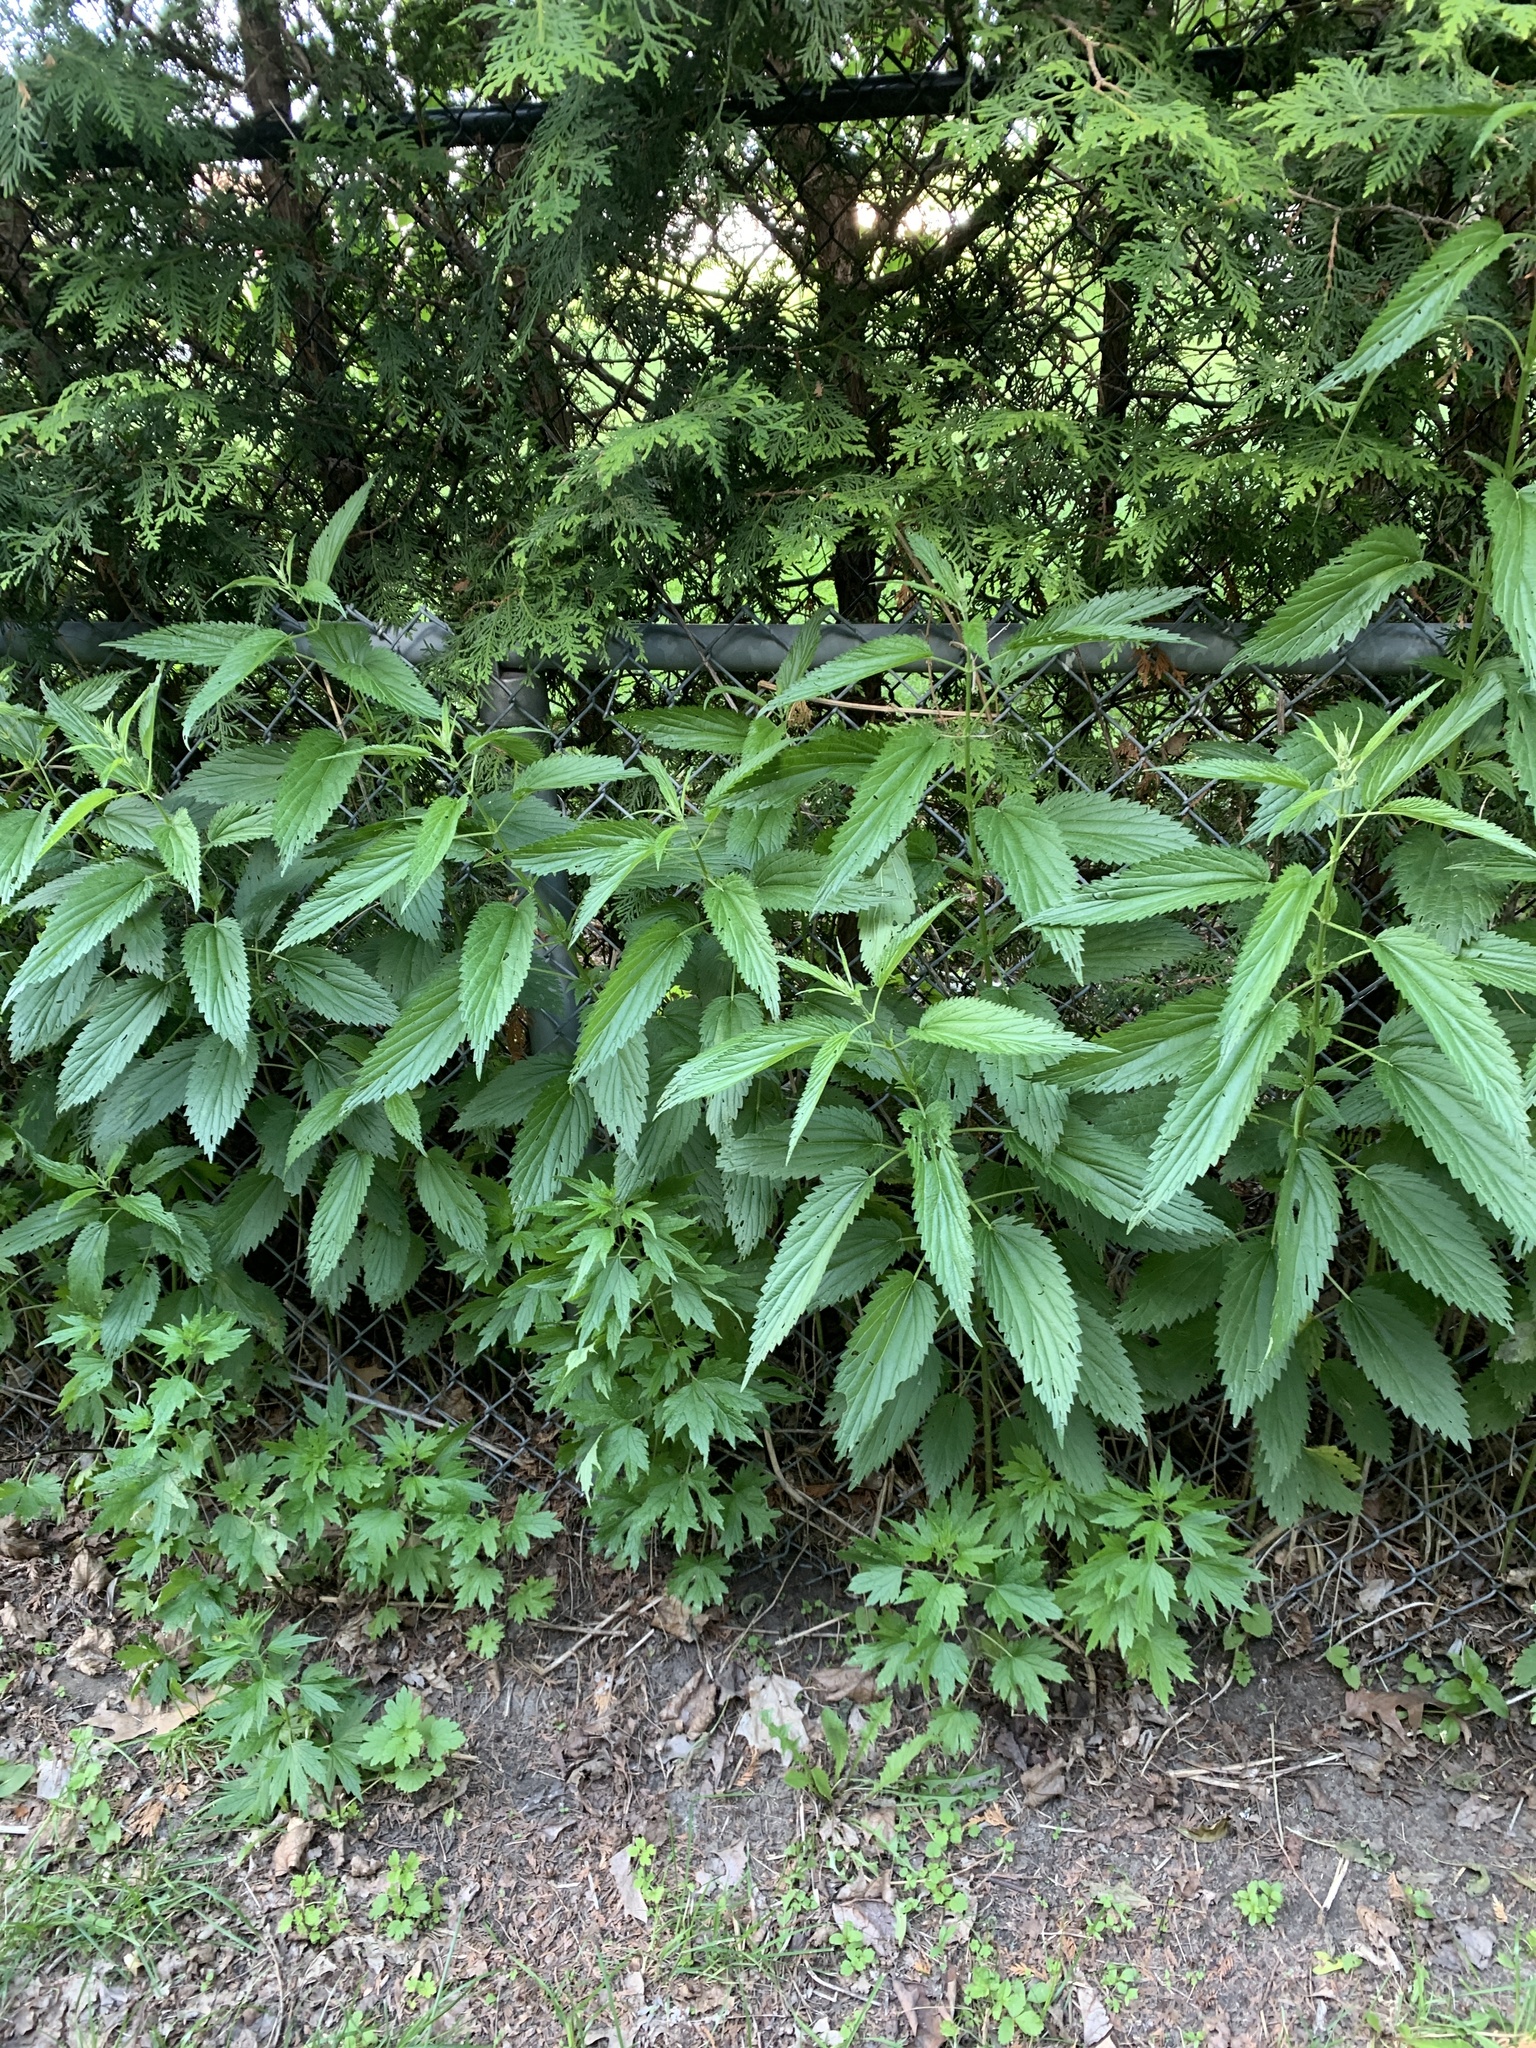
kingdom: Plantae
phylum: Tracheophyta
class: Magnoliopsida
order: Rosales
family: Urticaceae
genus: Urtica
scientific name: Urtica dioica
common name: Common nettle
